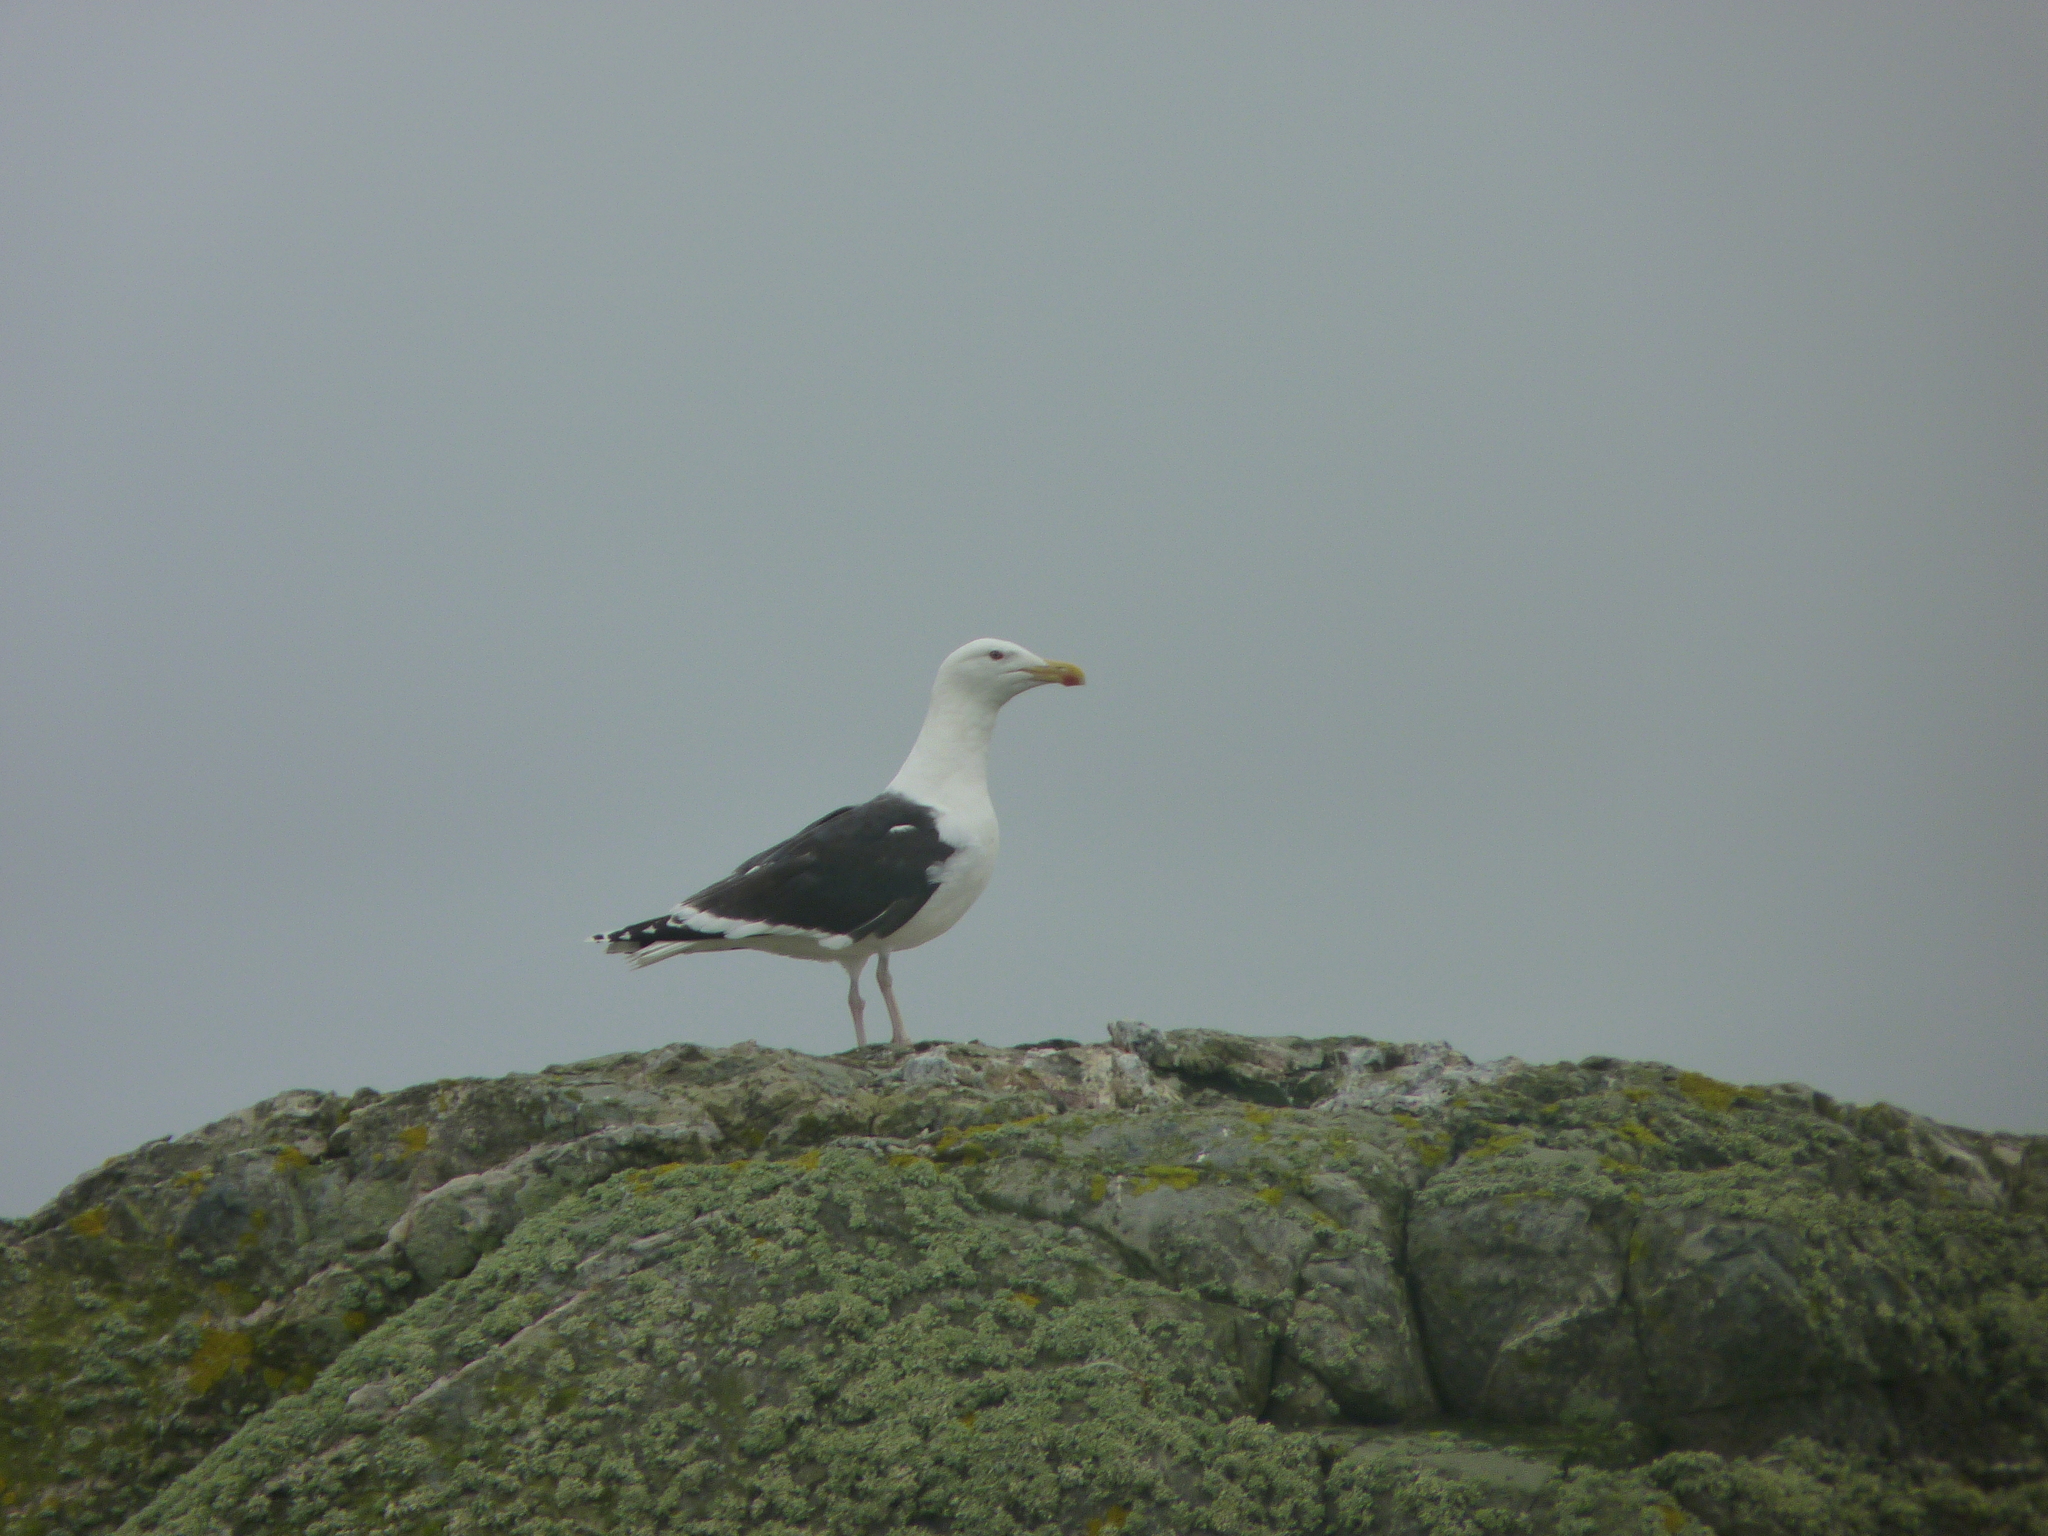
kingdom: Animalia
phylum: Chordata
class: Aves
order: Charadriiformes
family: Laridae
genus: Larus
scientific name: Larus marinus
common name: Great black-backed gull
